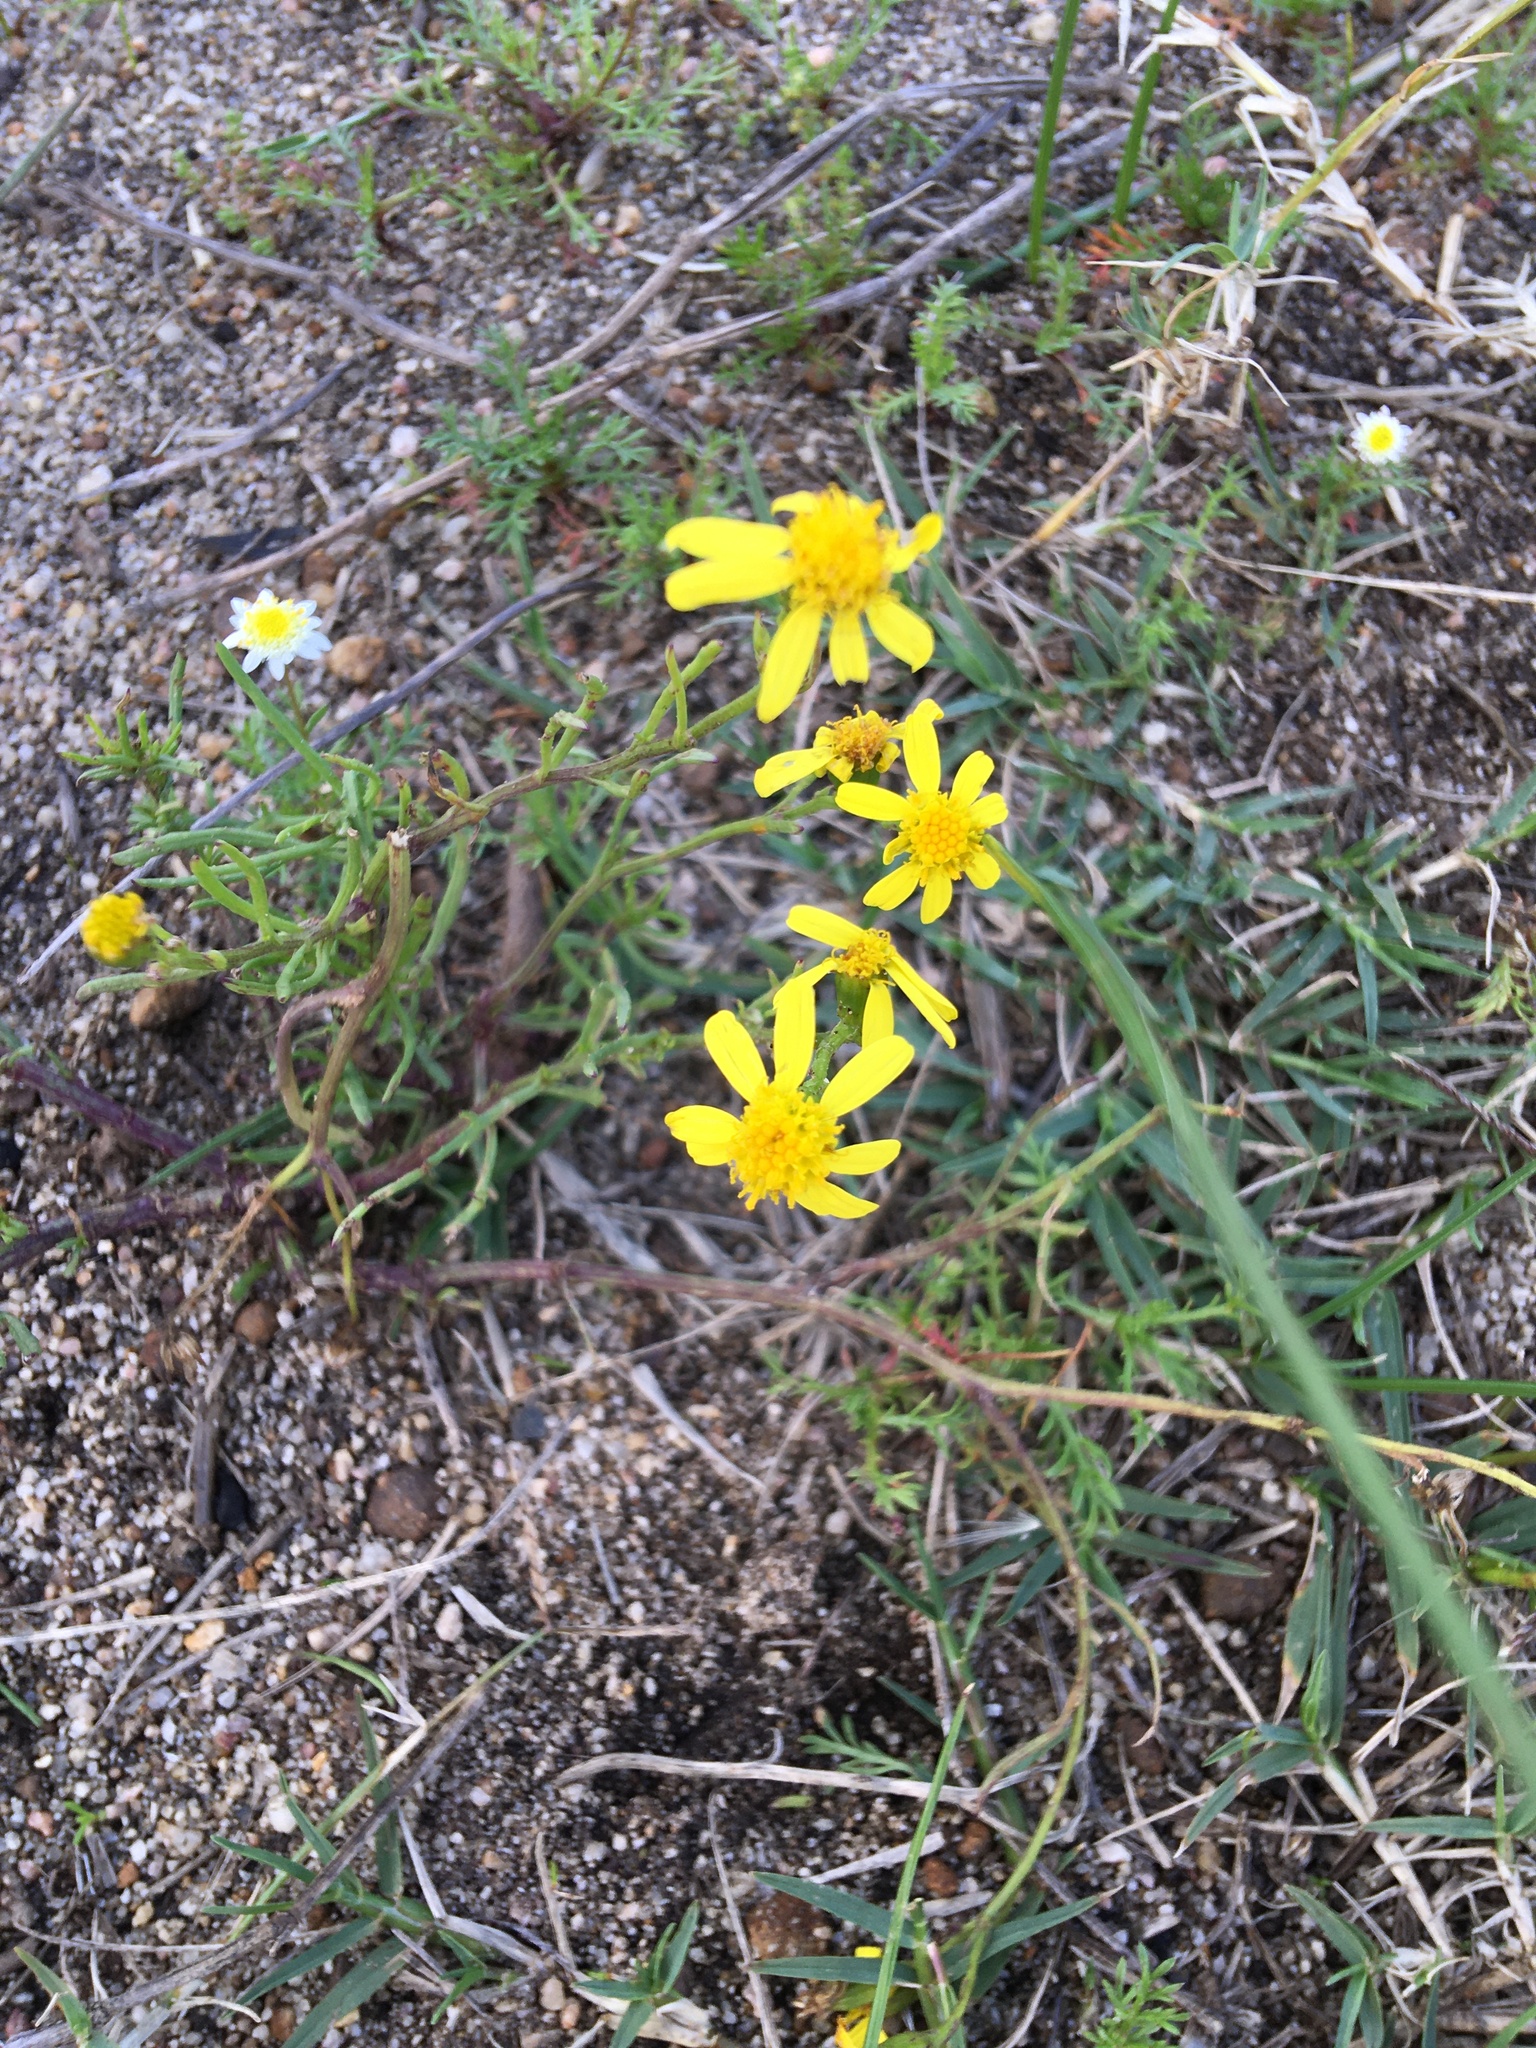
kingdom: Plantae
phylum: Tracheophyta
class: Magnoliopsida
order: Asterales
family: Asteraceae
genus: Senecio
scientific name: Senecio burchellii
